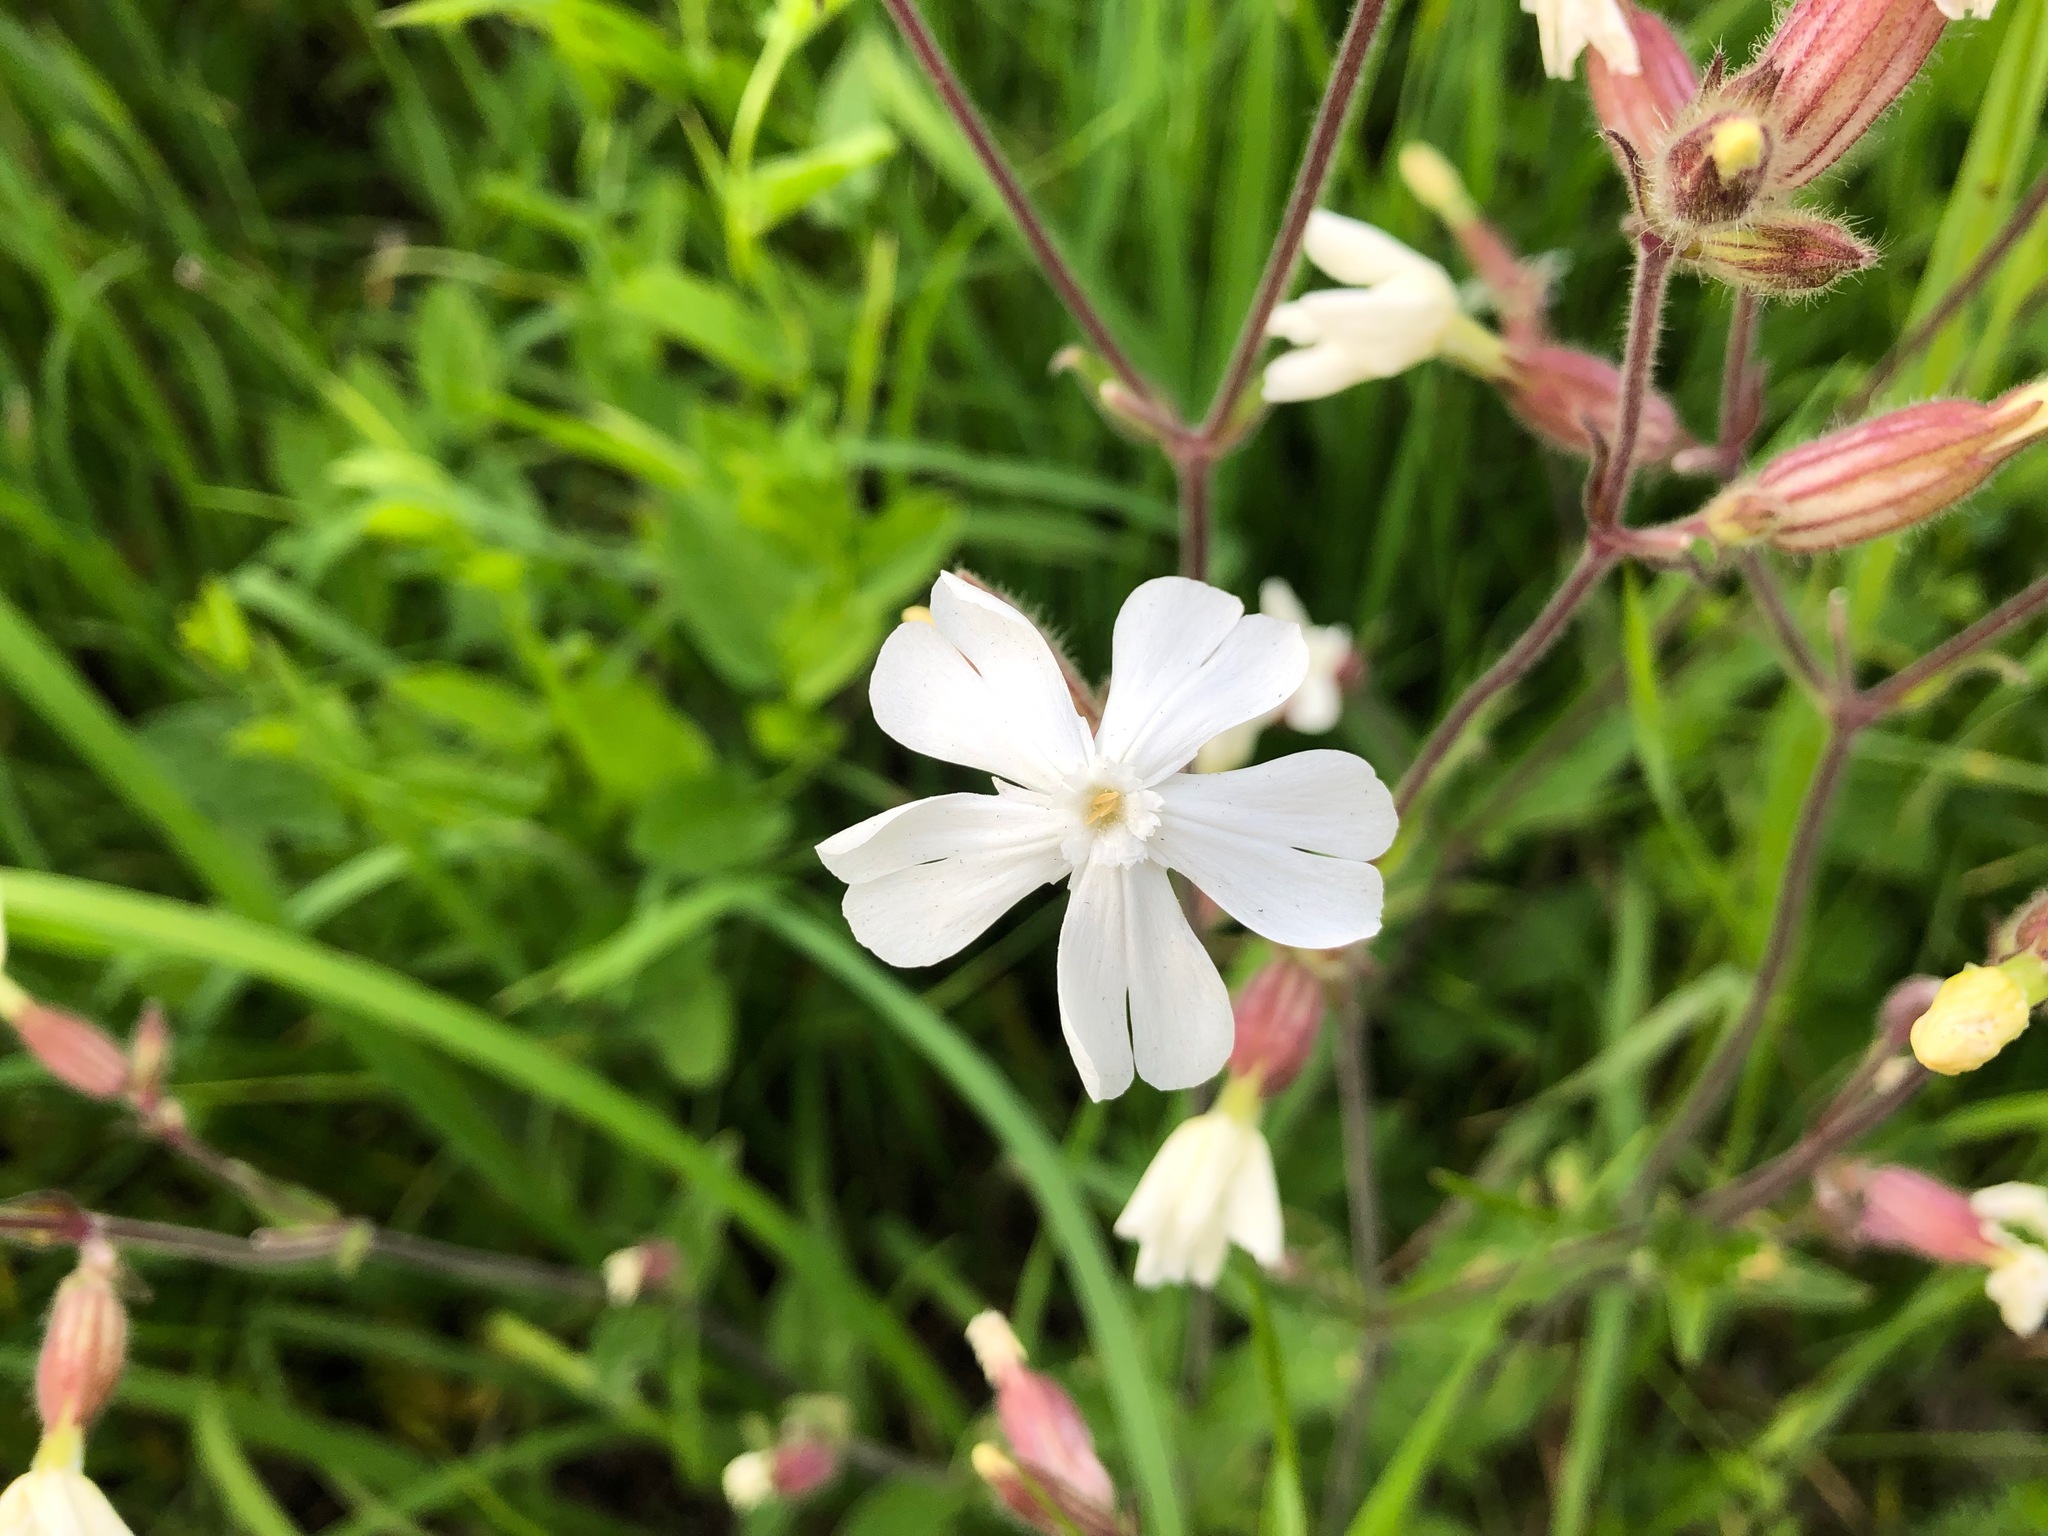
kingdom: Plantae
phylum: Tracheophyta
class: Magnoliopsida
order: Caryophyllales
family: Caryophyllaceae
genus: Silene
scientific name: Silene latifolia
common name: White campion
